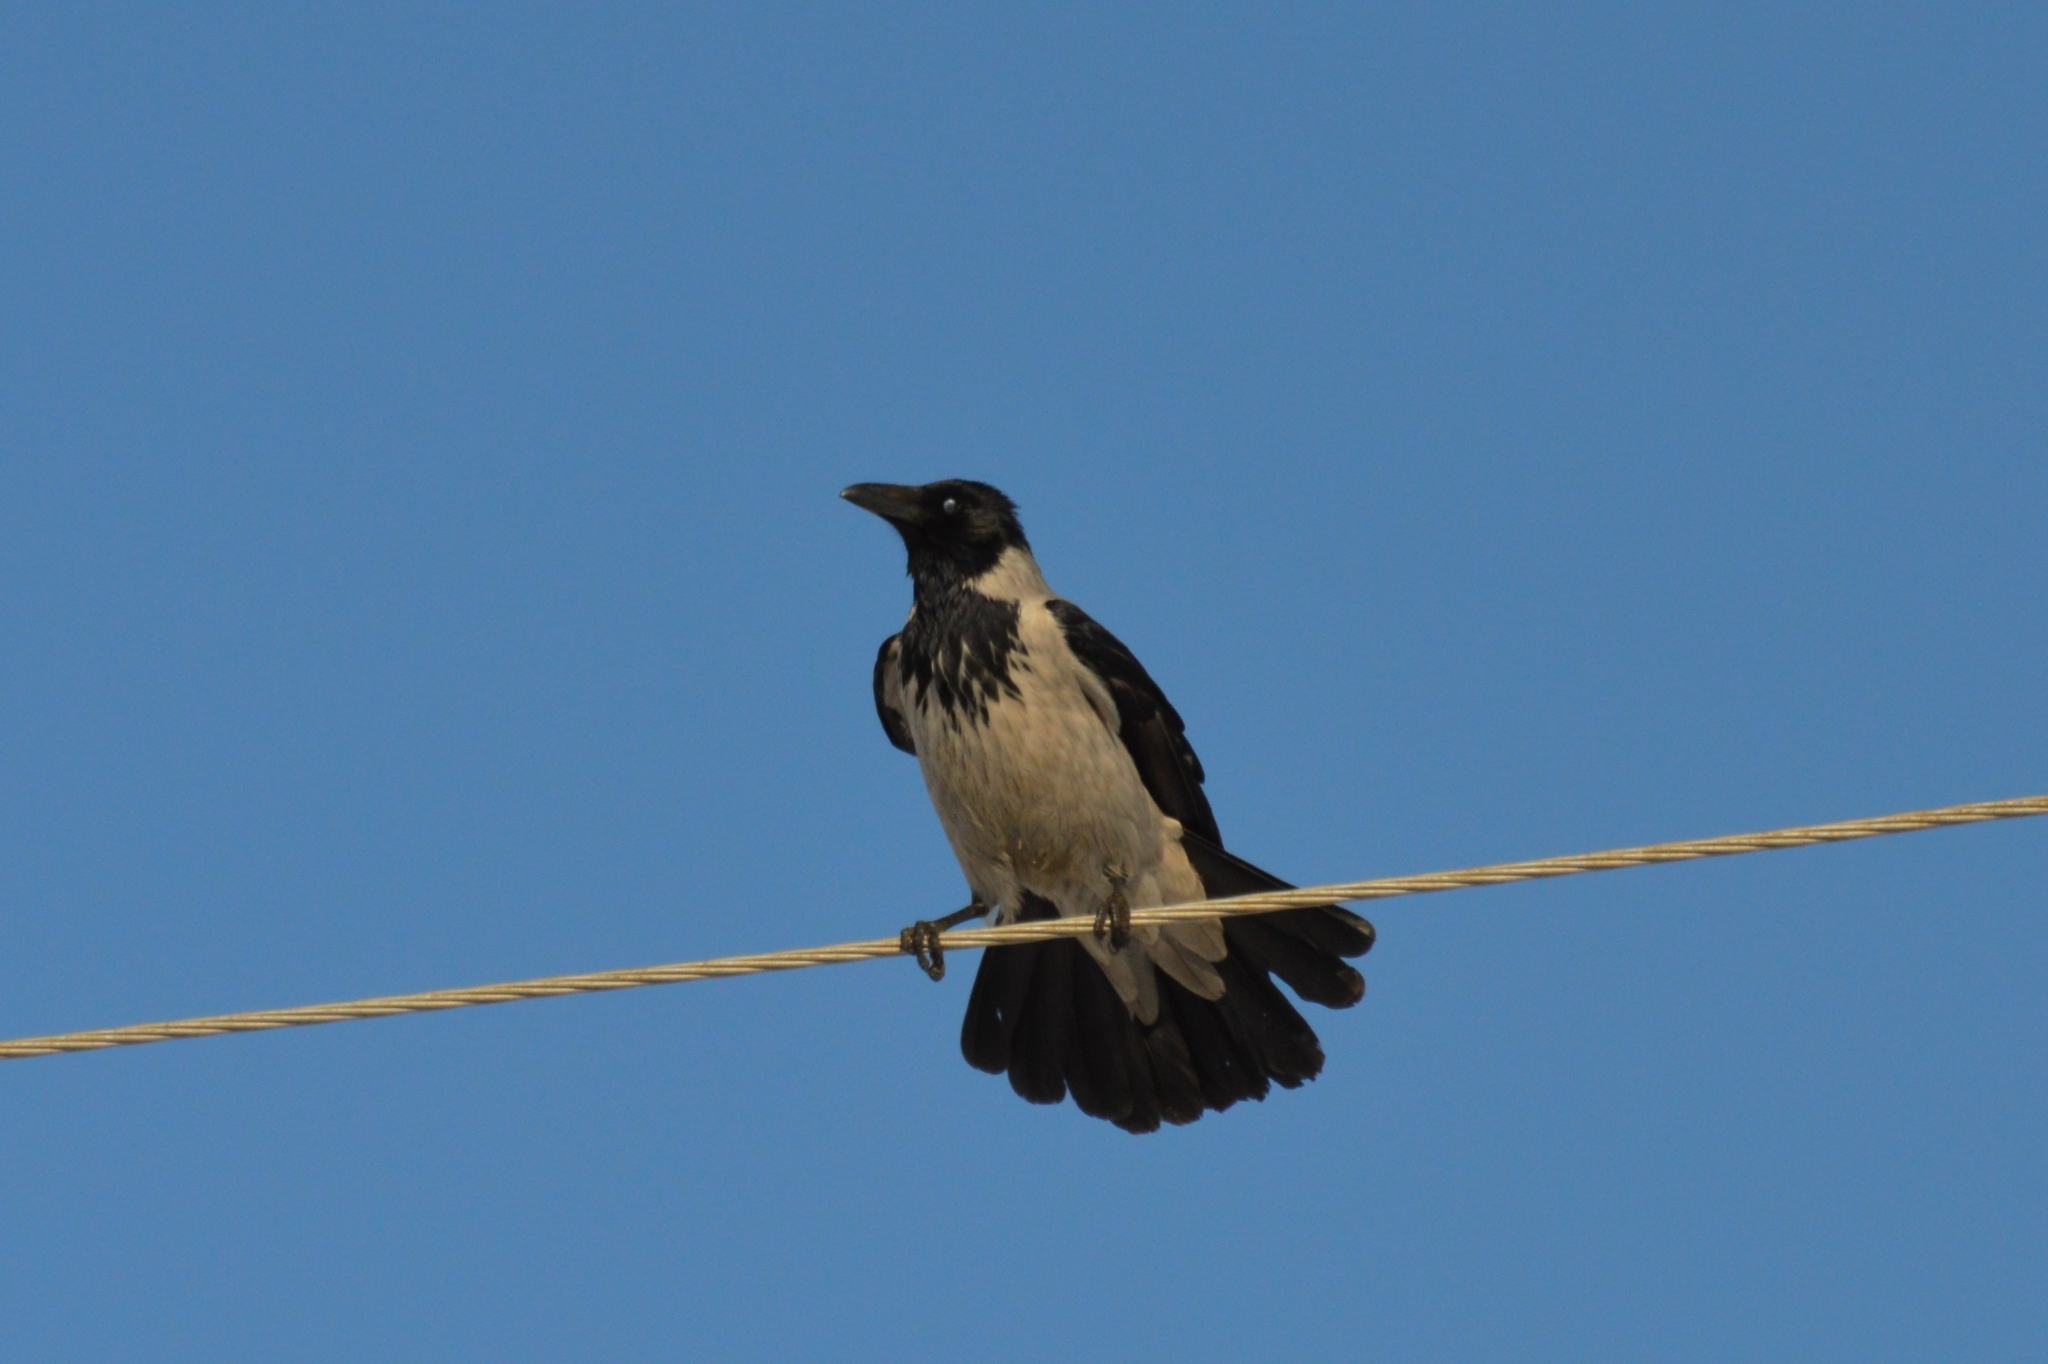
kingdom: Animalia
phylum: Chordata
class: Aves
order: Passeriformes
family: Corvidae
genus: Corvus
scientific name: Corvus cornix
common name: Hooded crow
